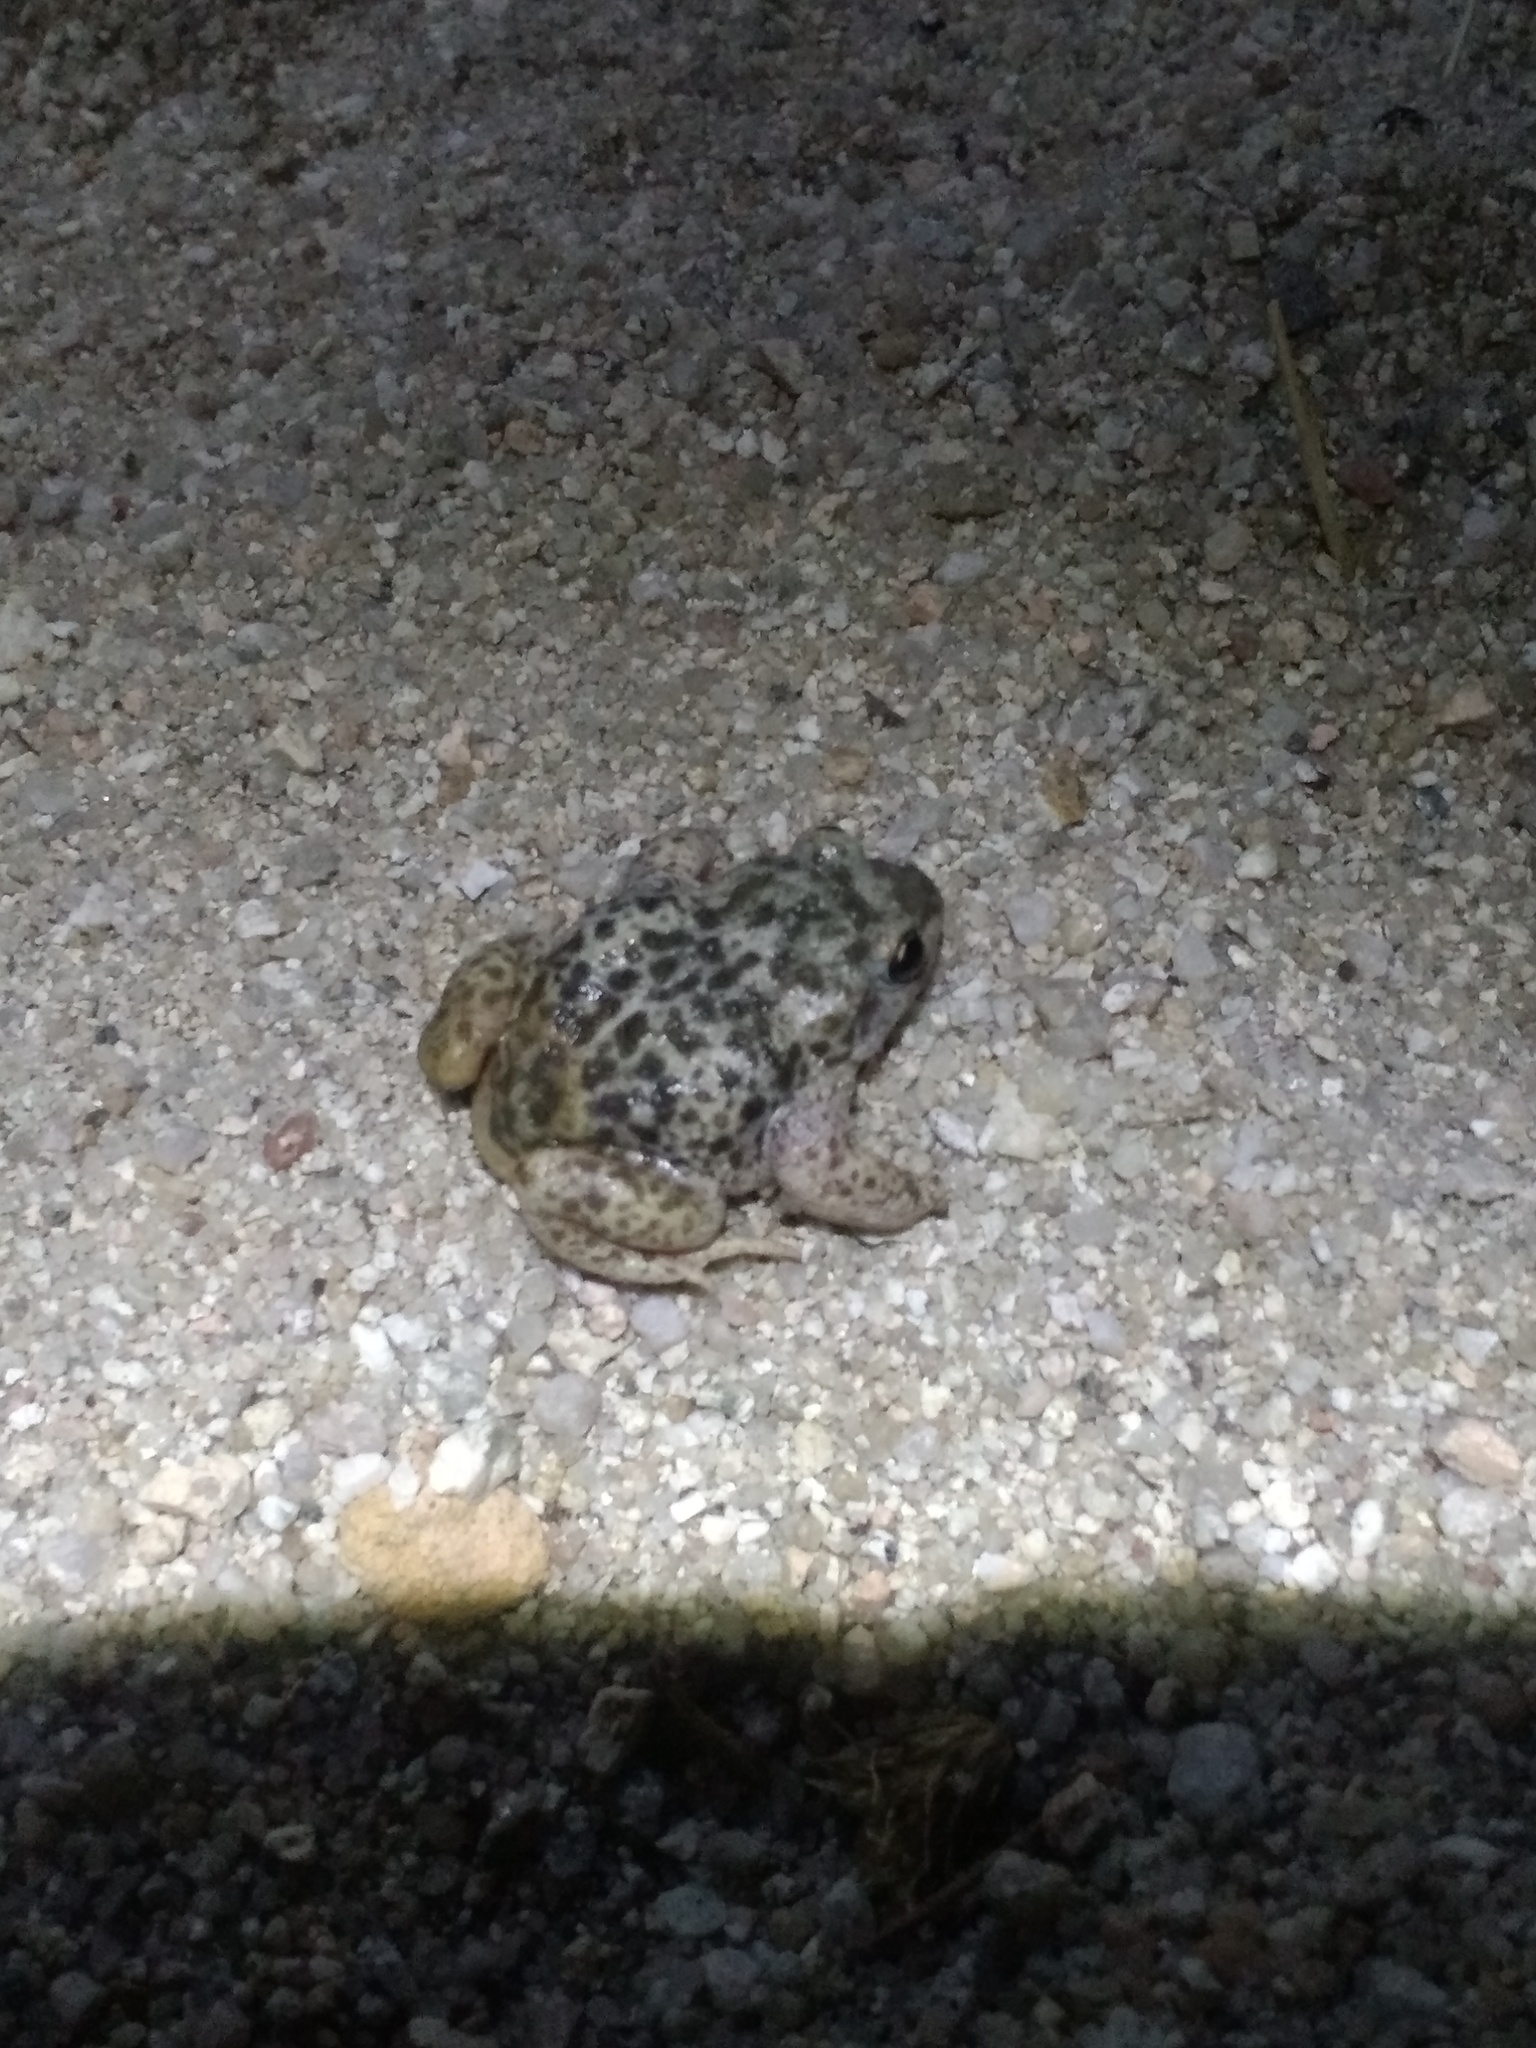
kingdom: Animalia
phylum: Chordata
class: Amphibia
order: Anura
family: Alytidae
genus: Alytes
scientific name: Alytes cisternasii
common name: Iberian midwife toad
